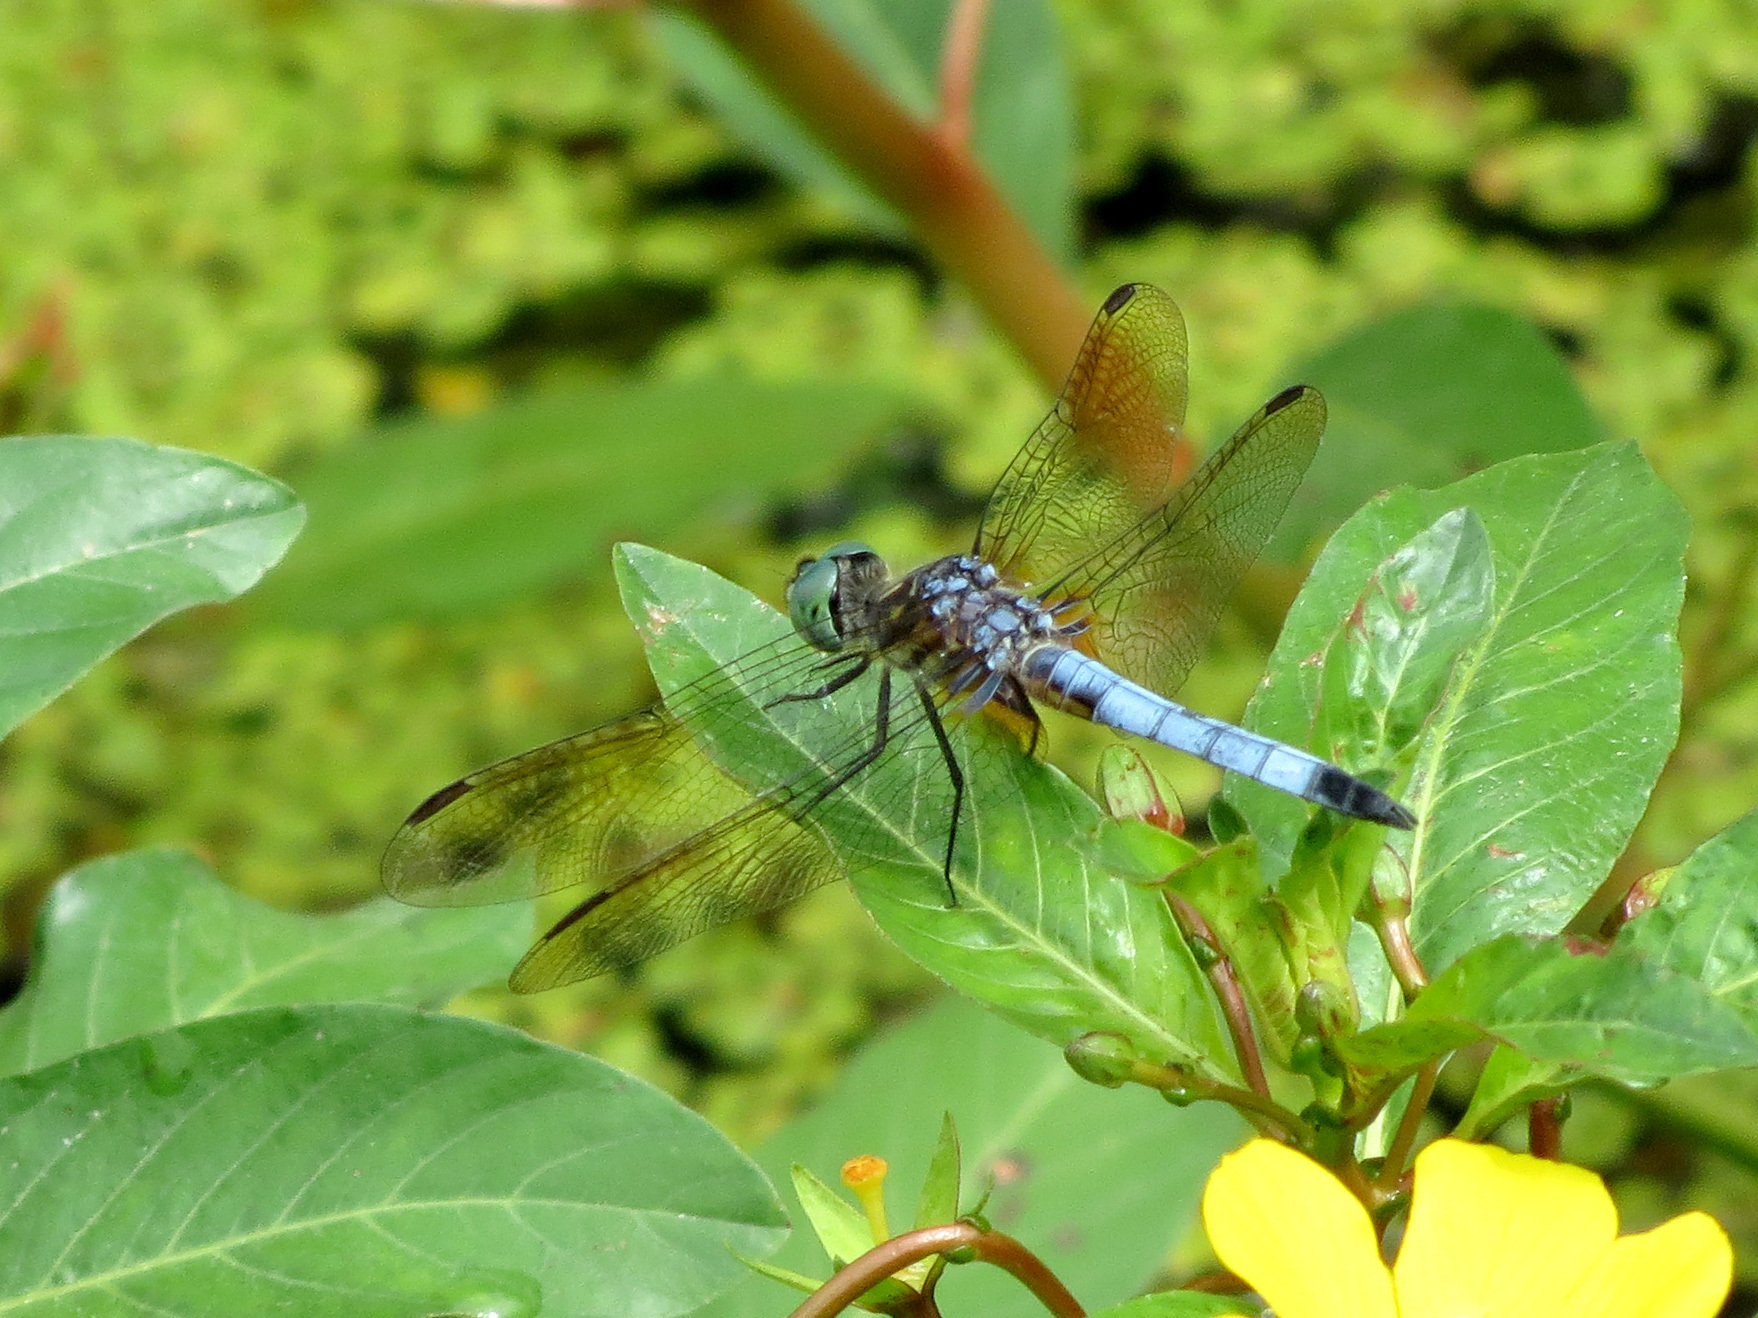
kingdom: Animalia
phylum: Arthropoda
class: Insecta
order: Odonata
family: Libellulidae
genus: Pachydiplax
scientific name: Pachydiplax longipennis
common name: Blue dasher
